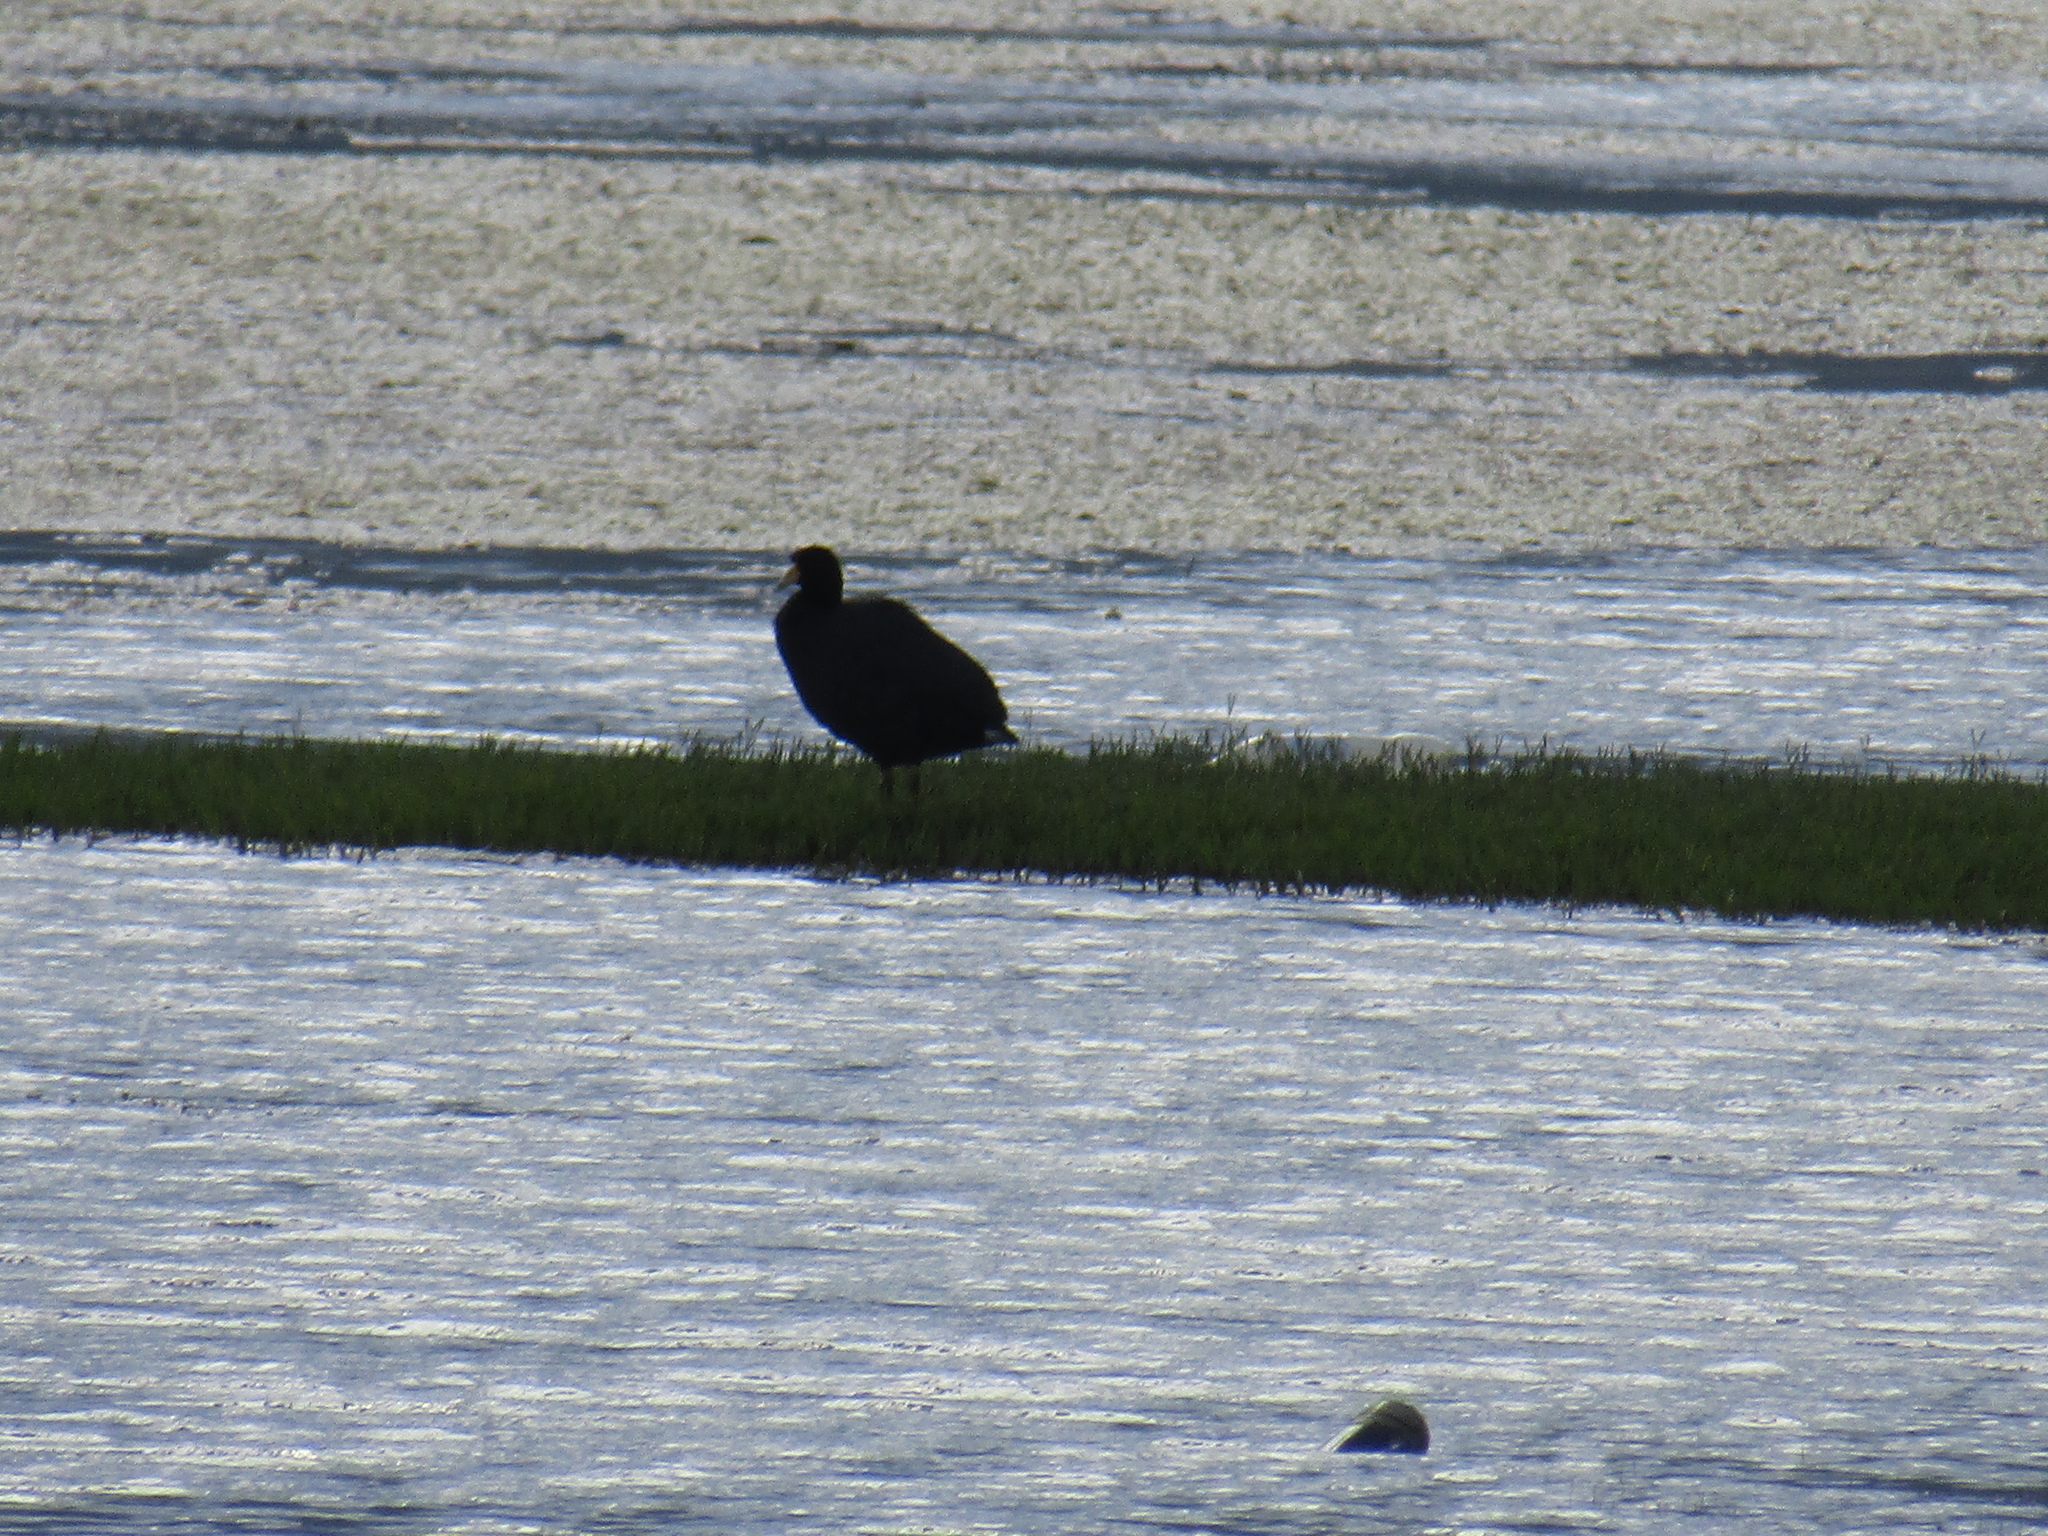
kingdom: Animalia
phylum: Chordata
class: Aves
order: Gruiformes
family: Rallidae
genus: Fulica
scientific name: Fulica ardesiaca
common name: Andean coot
